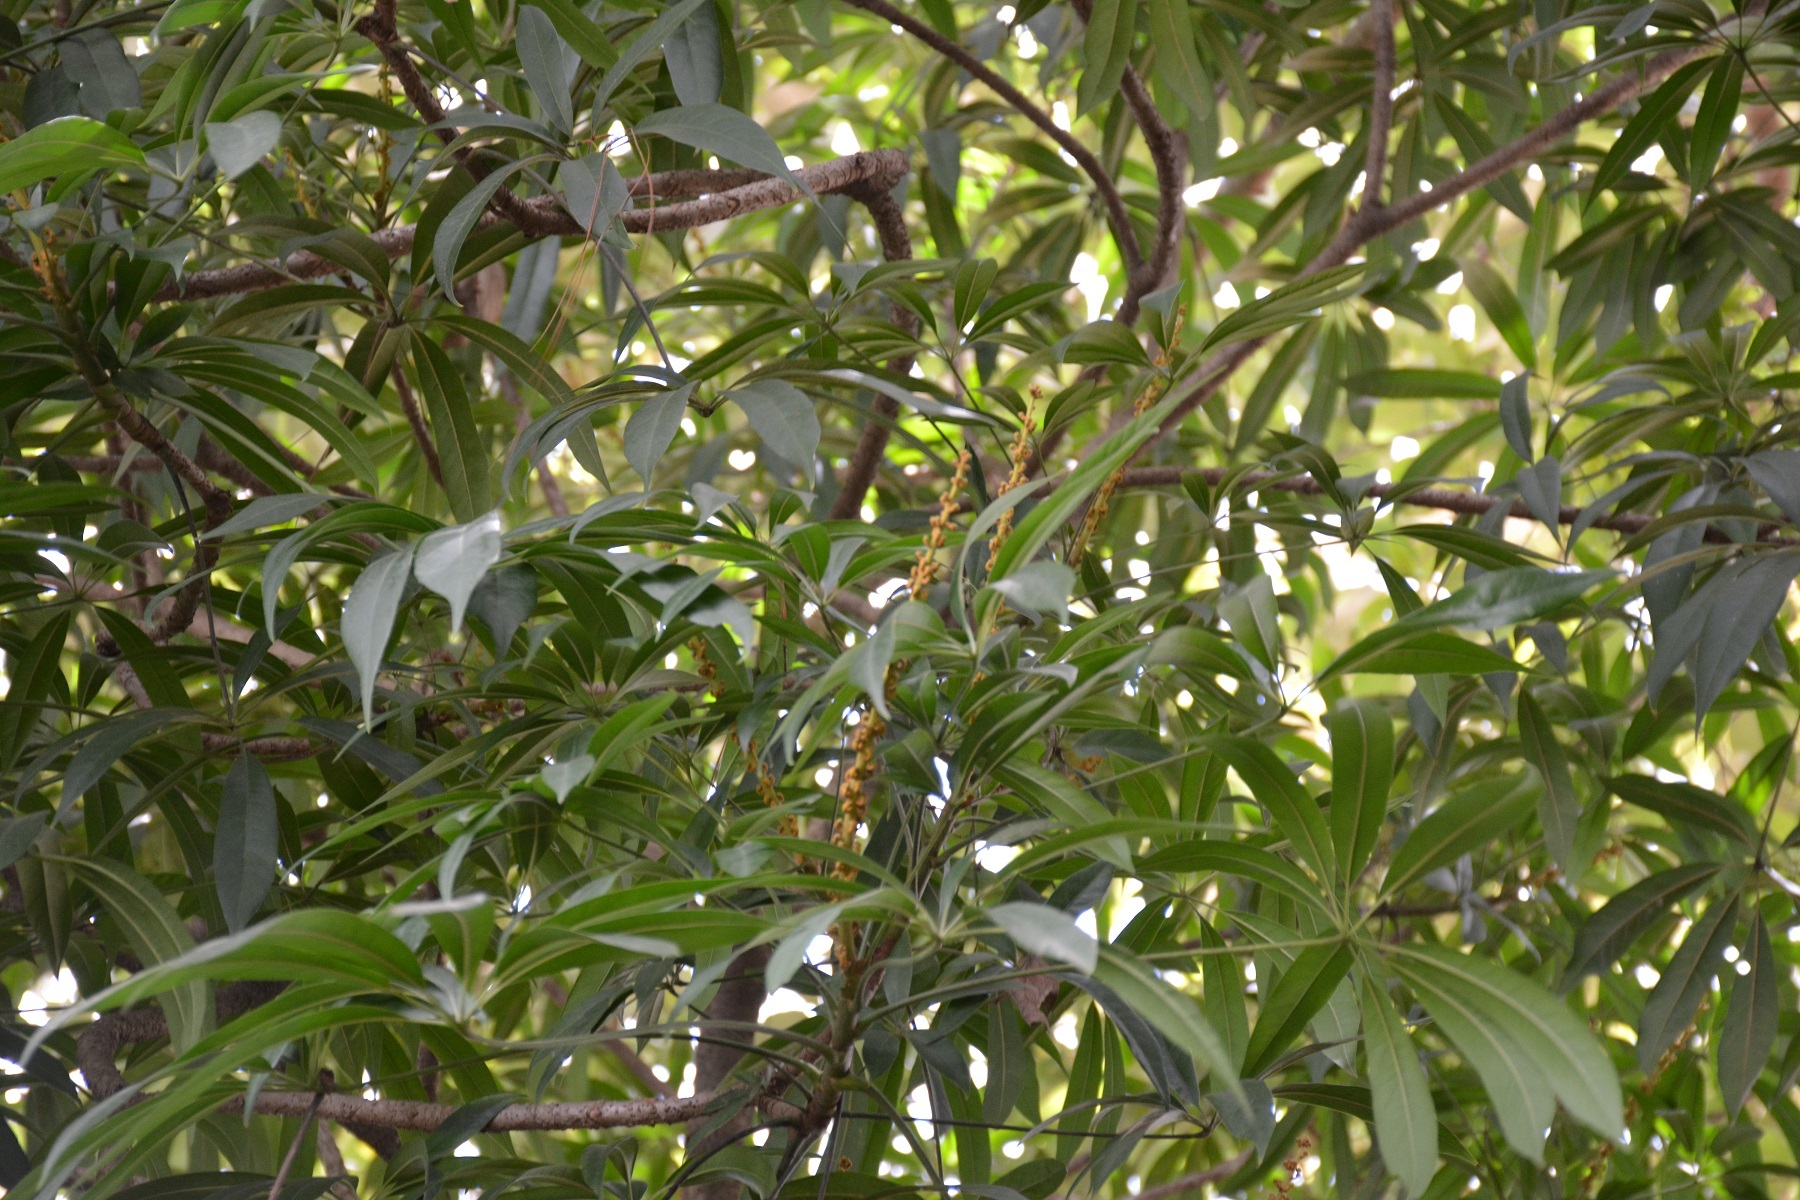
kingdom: Plantae
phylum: Tracheophyta
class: Magnoliopsida
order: Apiales
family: Araliaceae
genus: Oreopanax
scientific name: Oreopanax xalapensis
